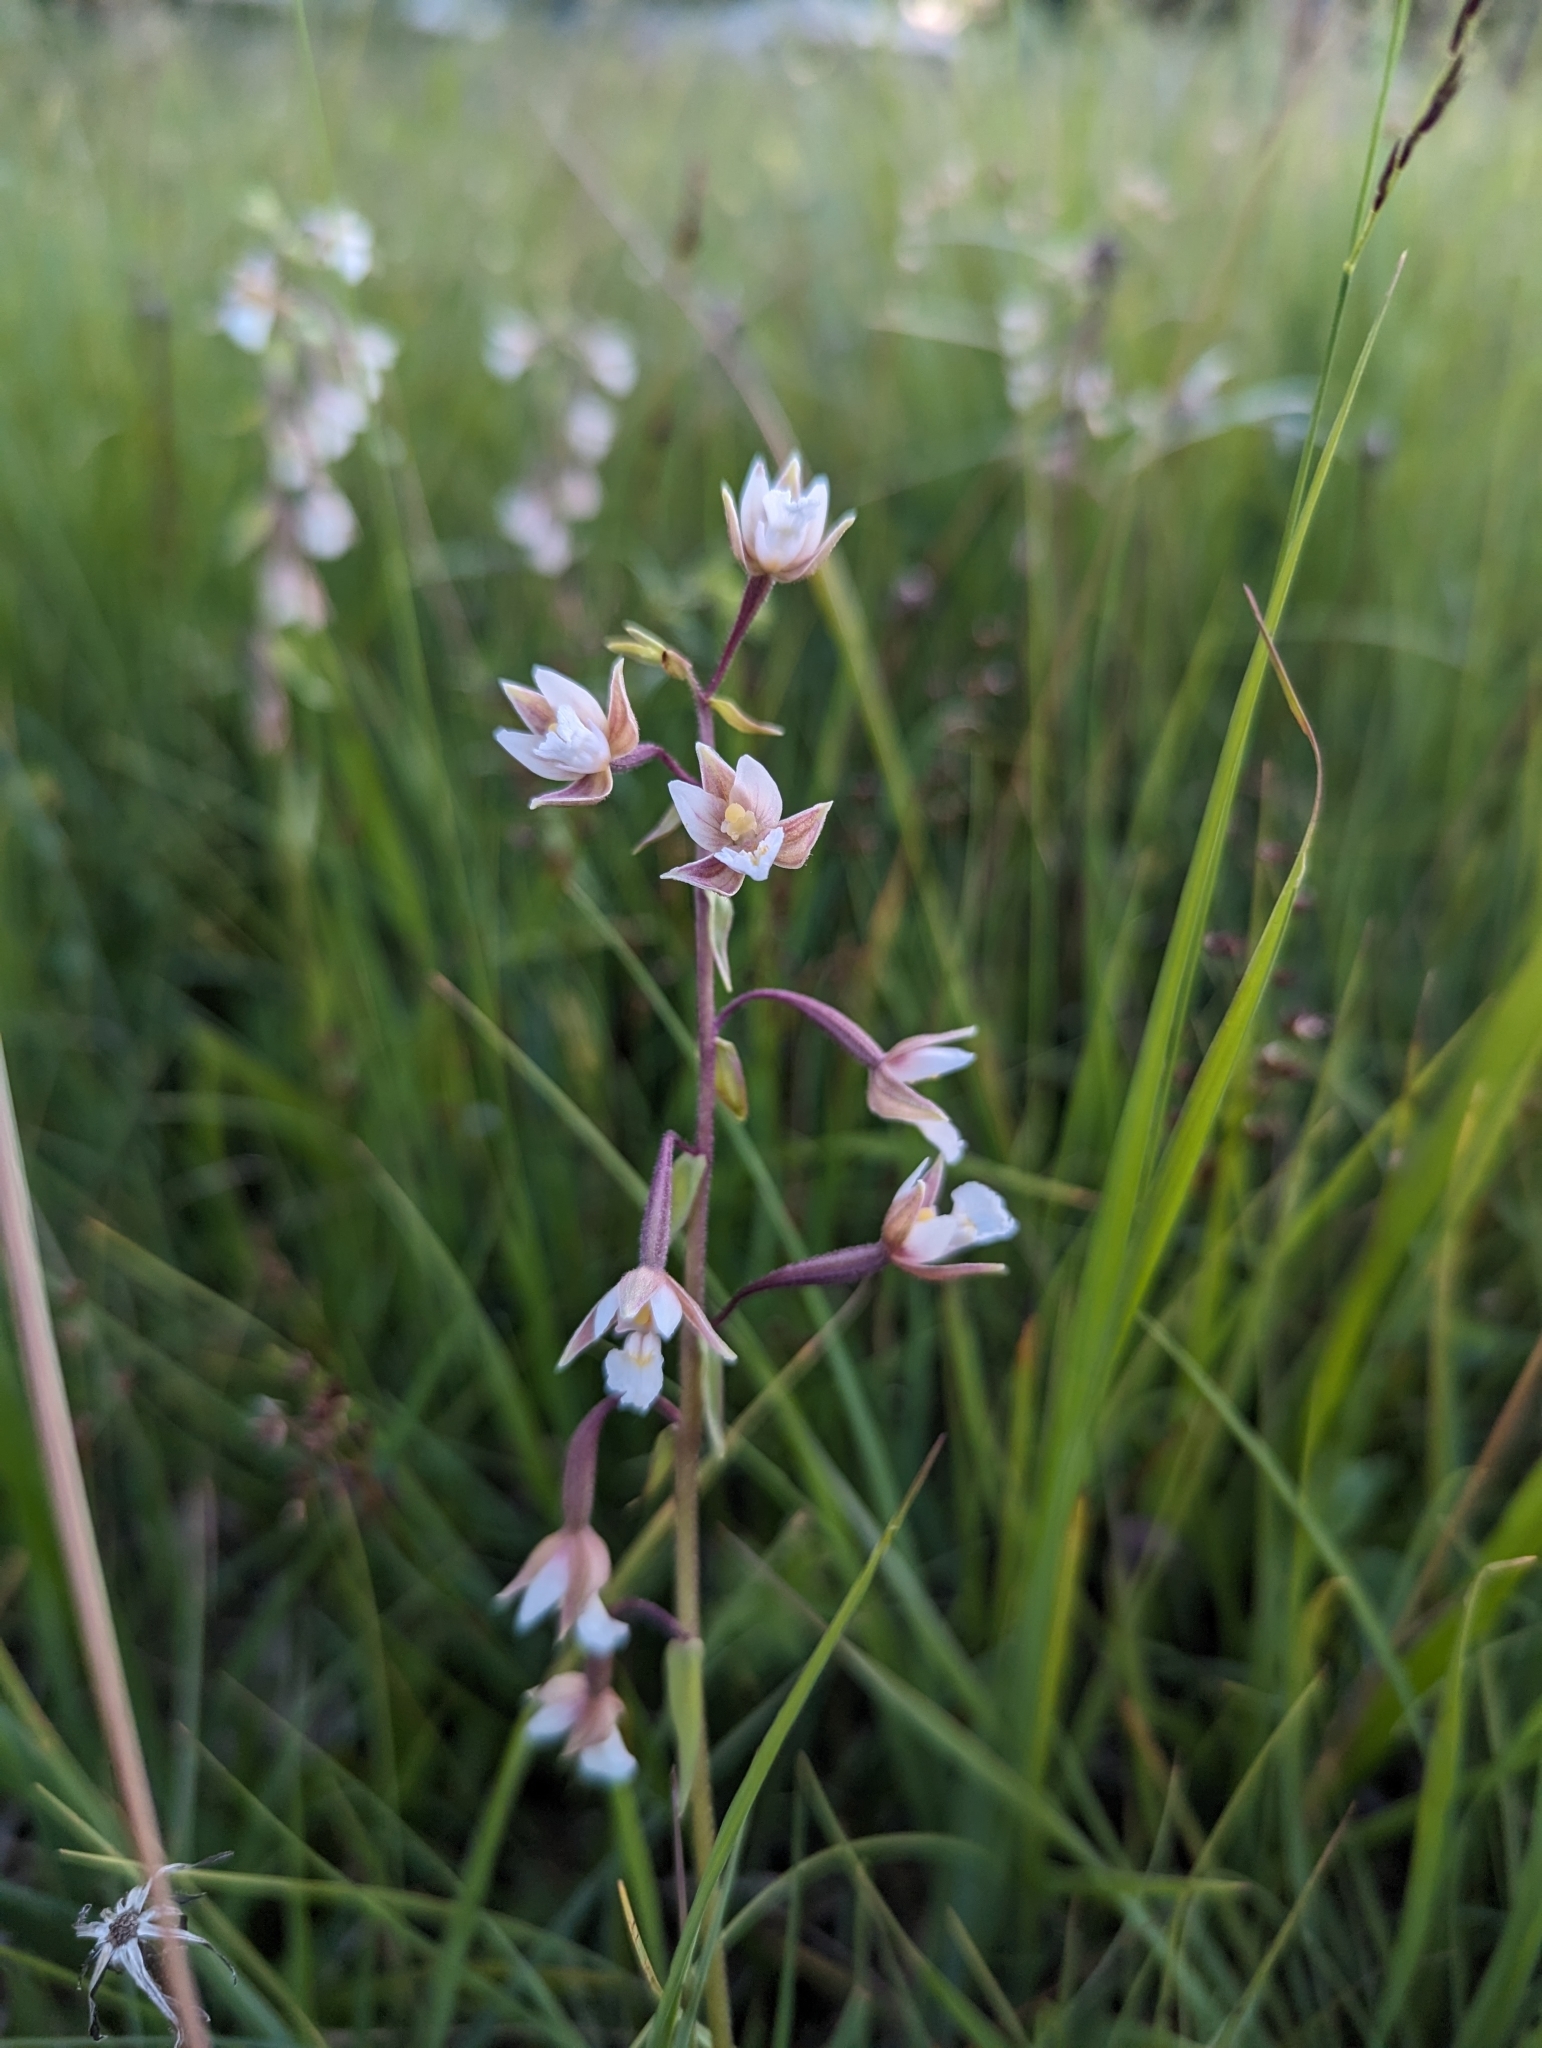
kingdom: Plantae
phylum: Tracheophyta
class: Liliopsida
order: Asparagales
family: Orchidaceae
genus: Epipactis
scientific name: Epipactis palustris
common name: Marsh helleborine
